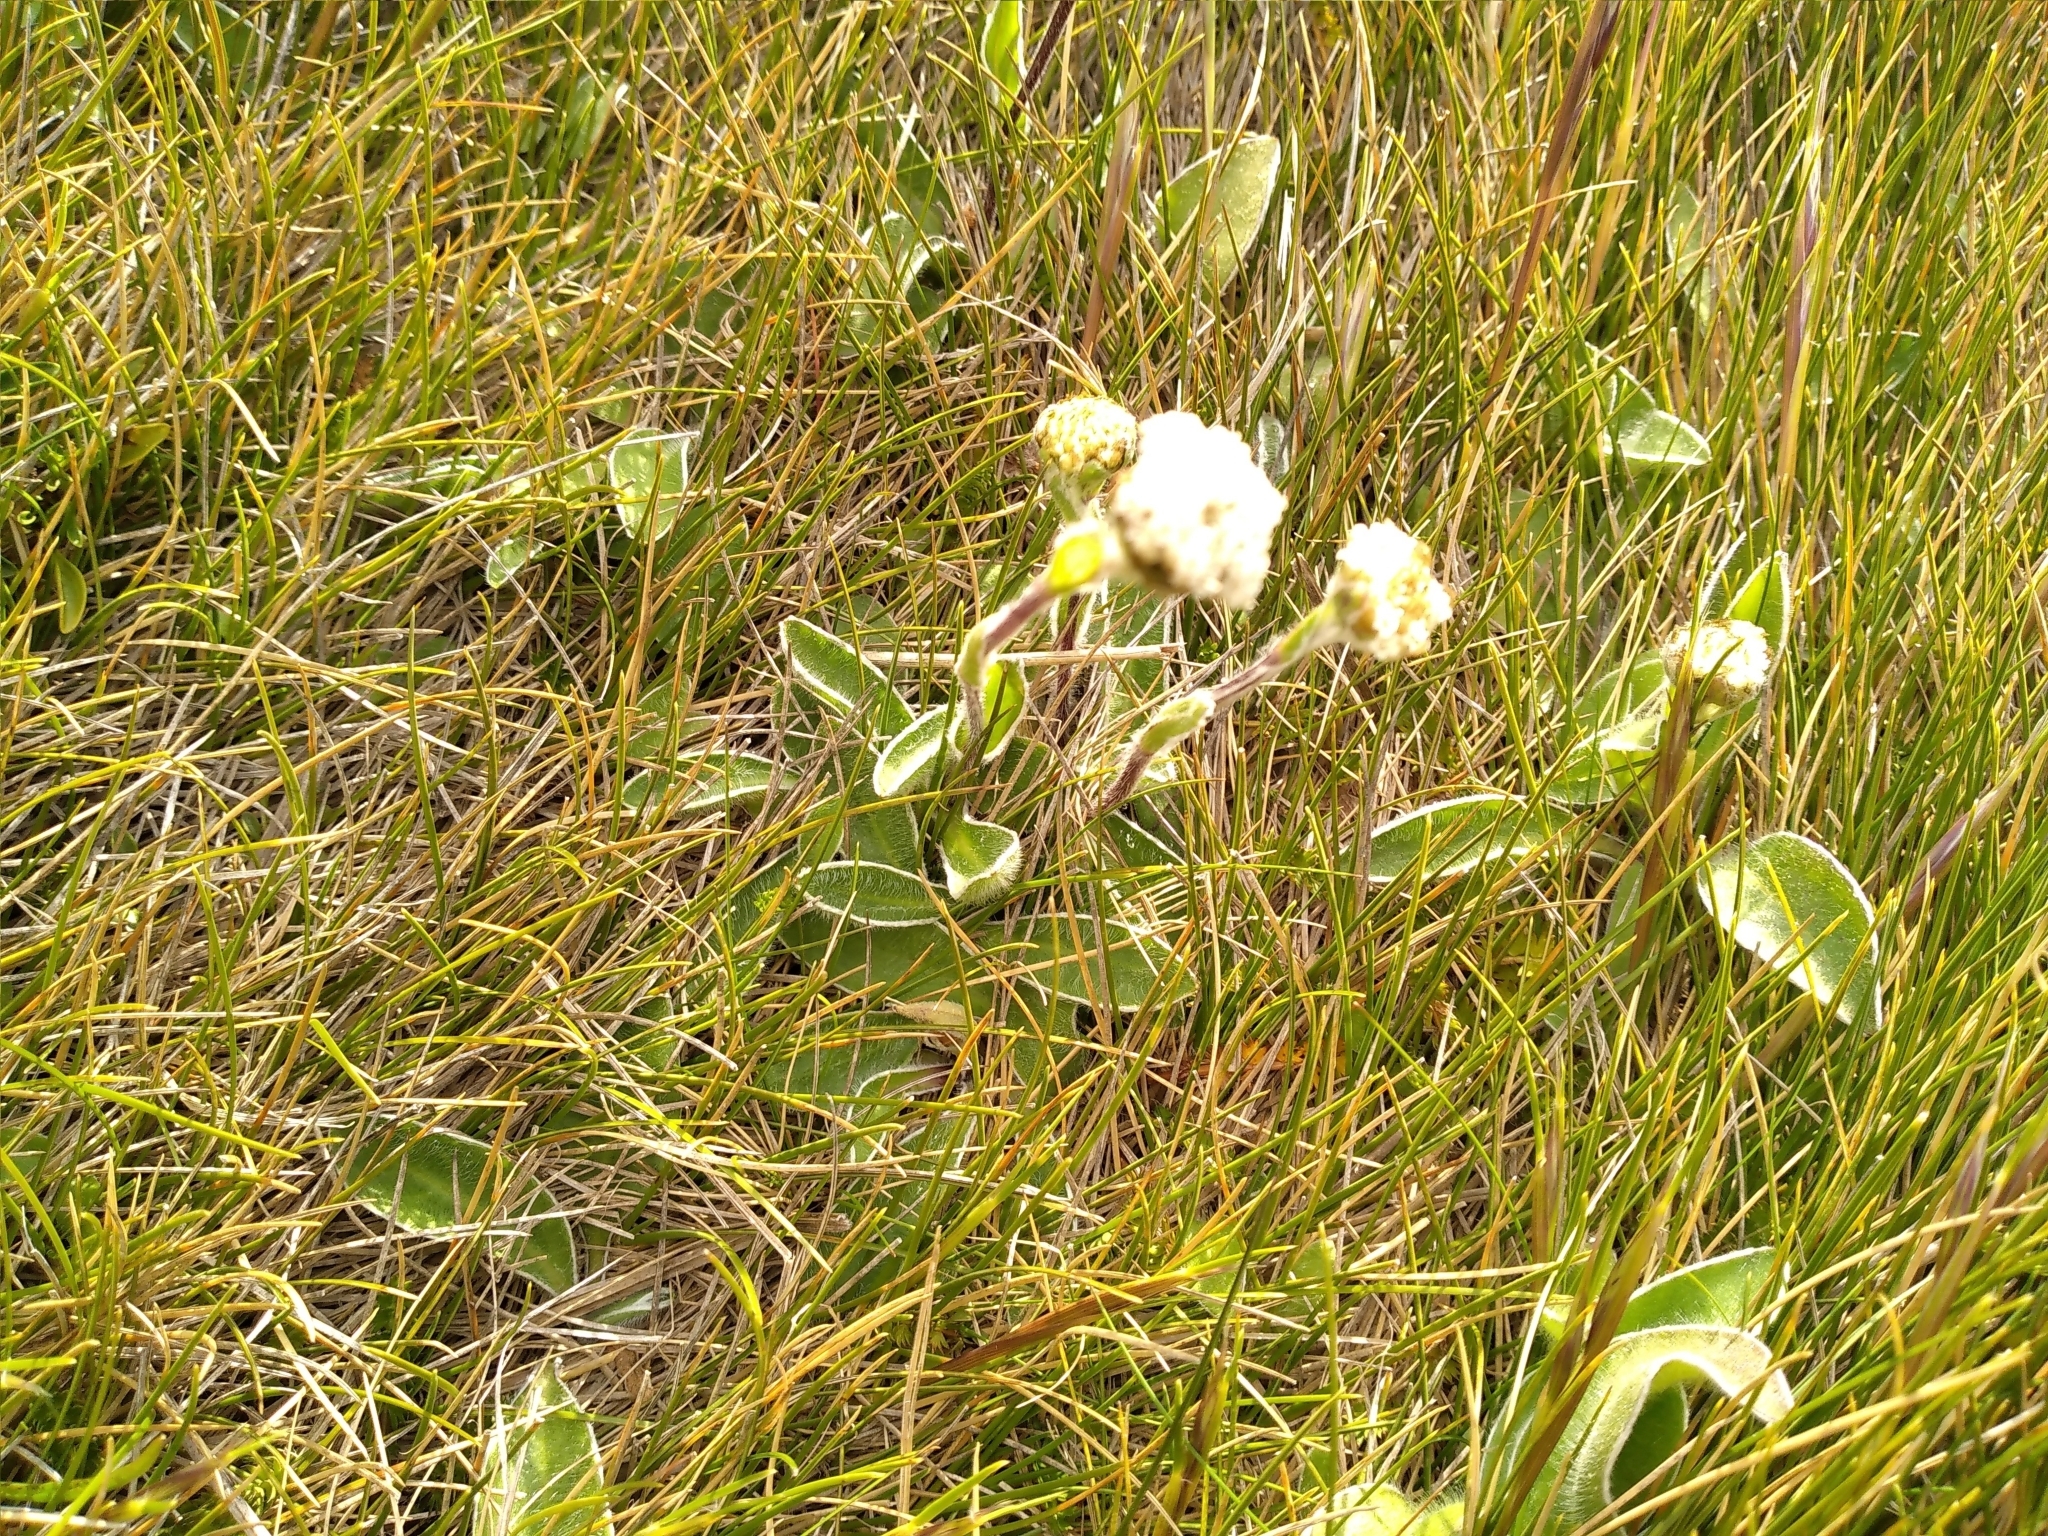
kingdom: Plantae
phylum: Tracheophyta
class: Magnoliopsida
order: Asterales
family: Asteraceae
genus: Craspedia
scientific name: Craspedia uniflora
